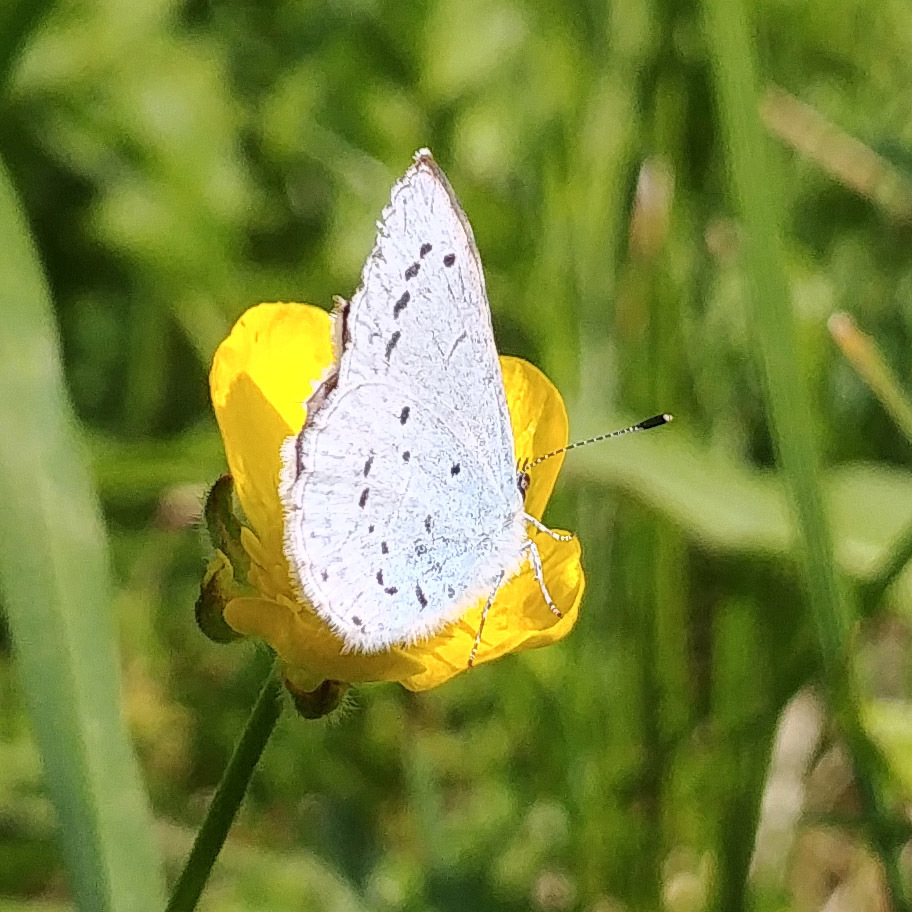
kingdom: Animalia
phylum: Arthropoda
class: Insecta
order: Lepidoptera
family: Lycaenidae
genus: Celastrina
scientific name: Celastrina argiolus
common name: Holly blue
